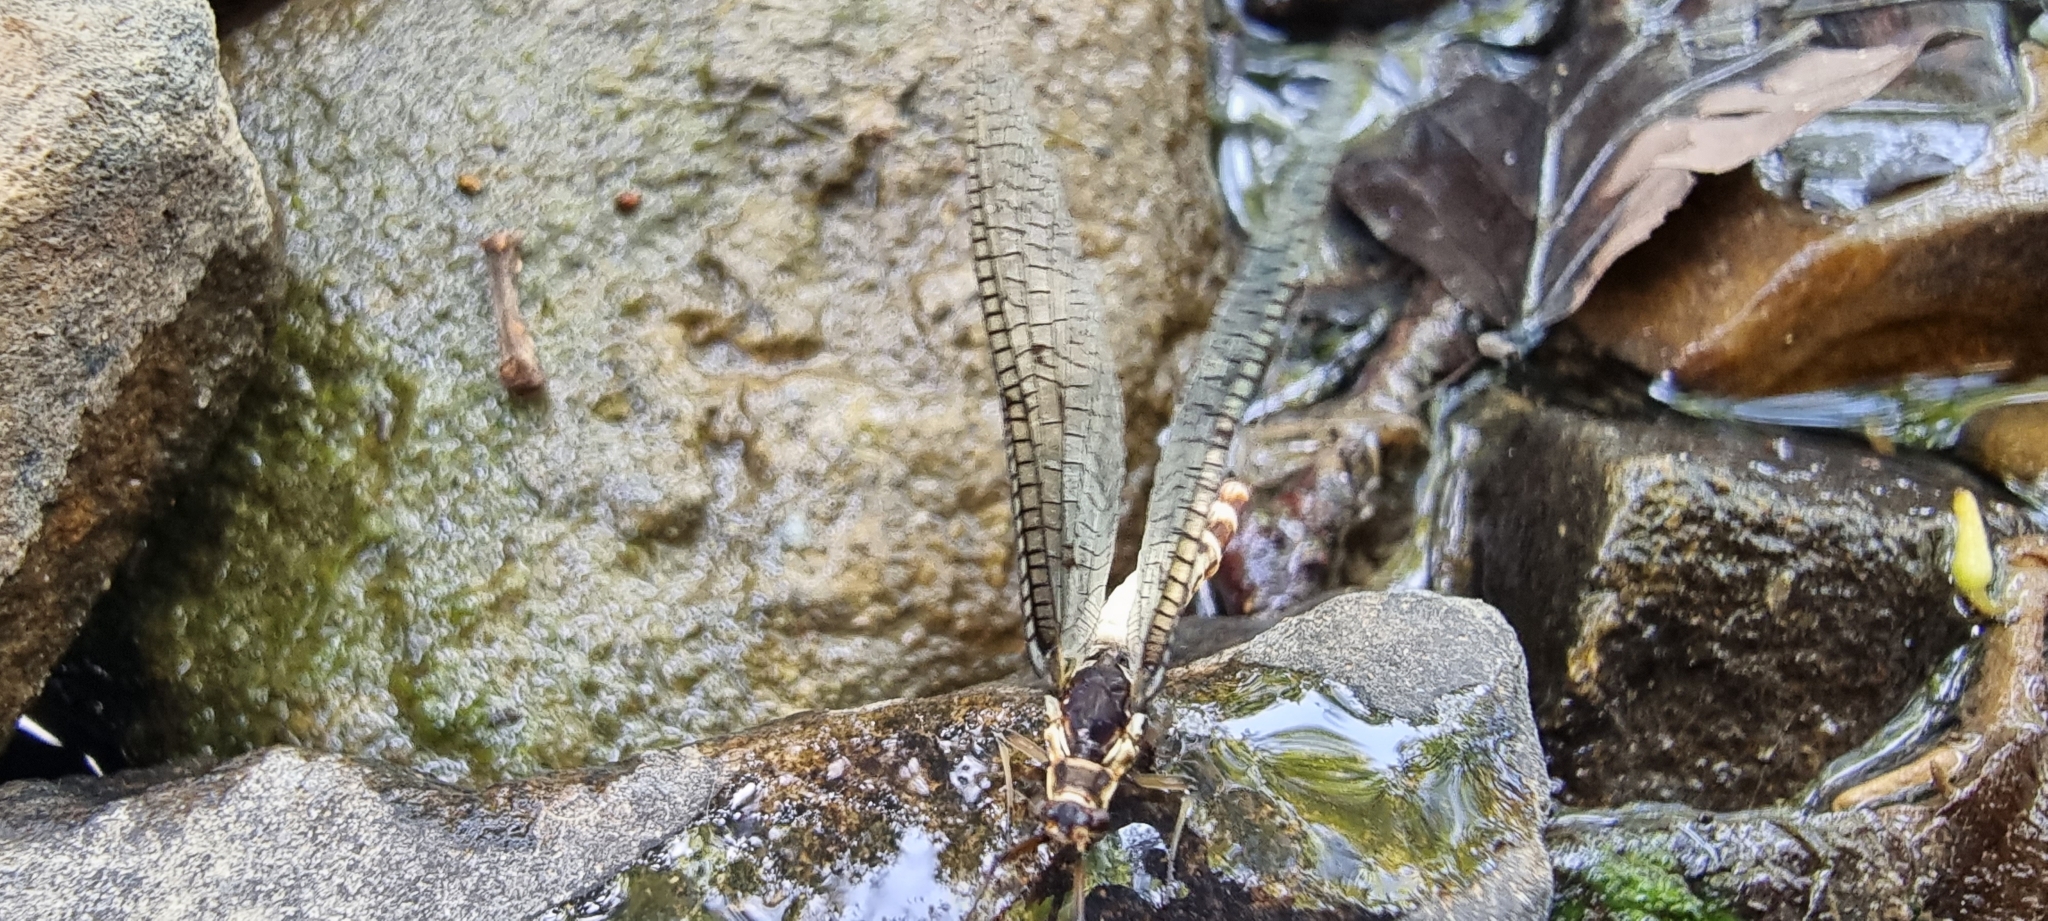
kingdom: Animalia
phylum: Arthropoda
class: Insecta
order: Ephemeroptera
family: Ephemeridae
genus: Ephemera
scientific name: Ephemera danica
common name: Green dun
